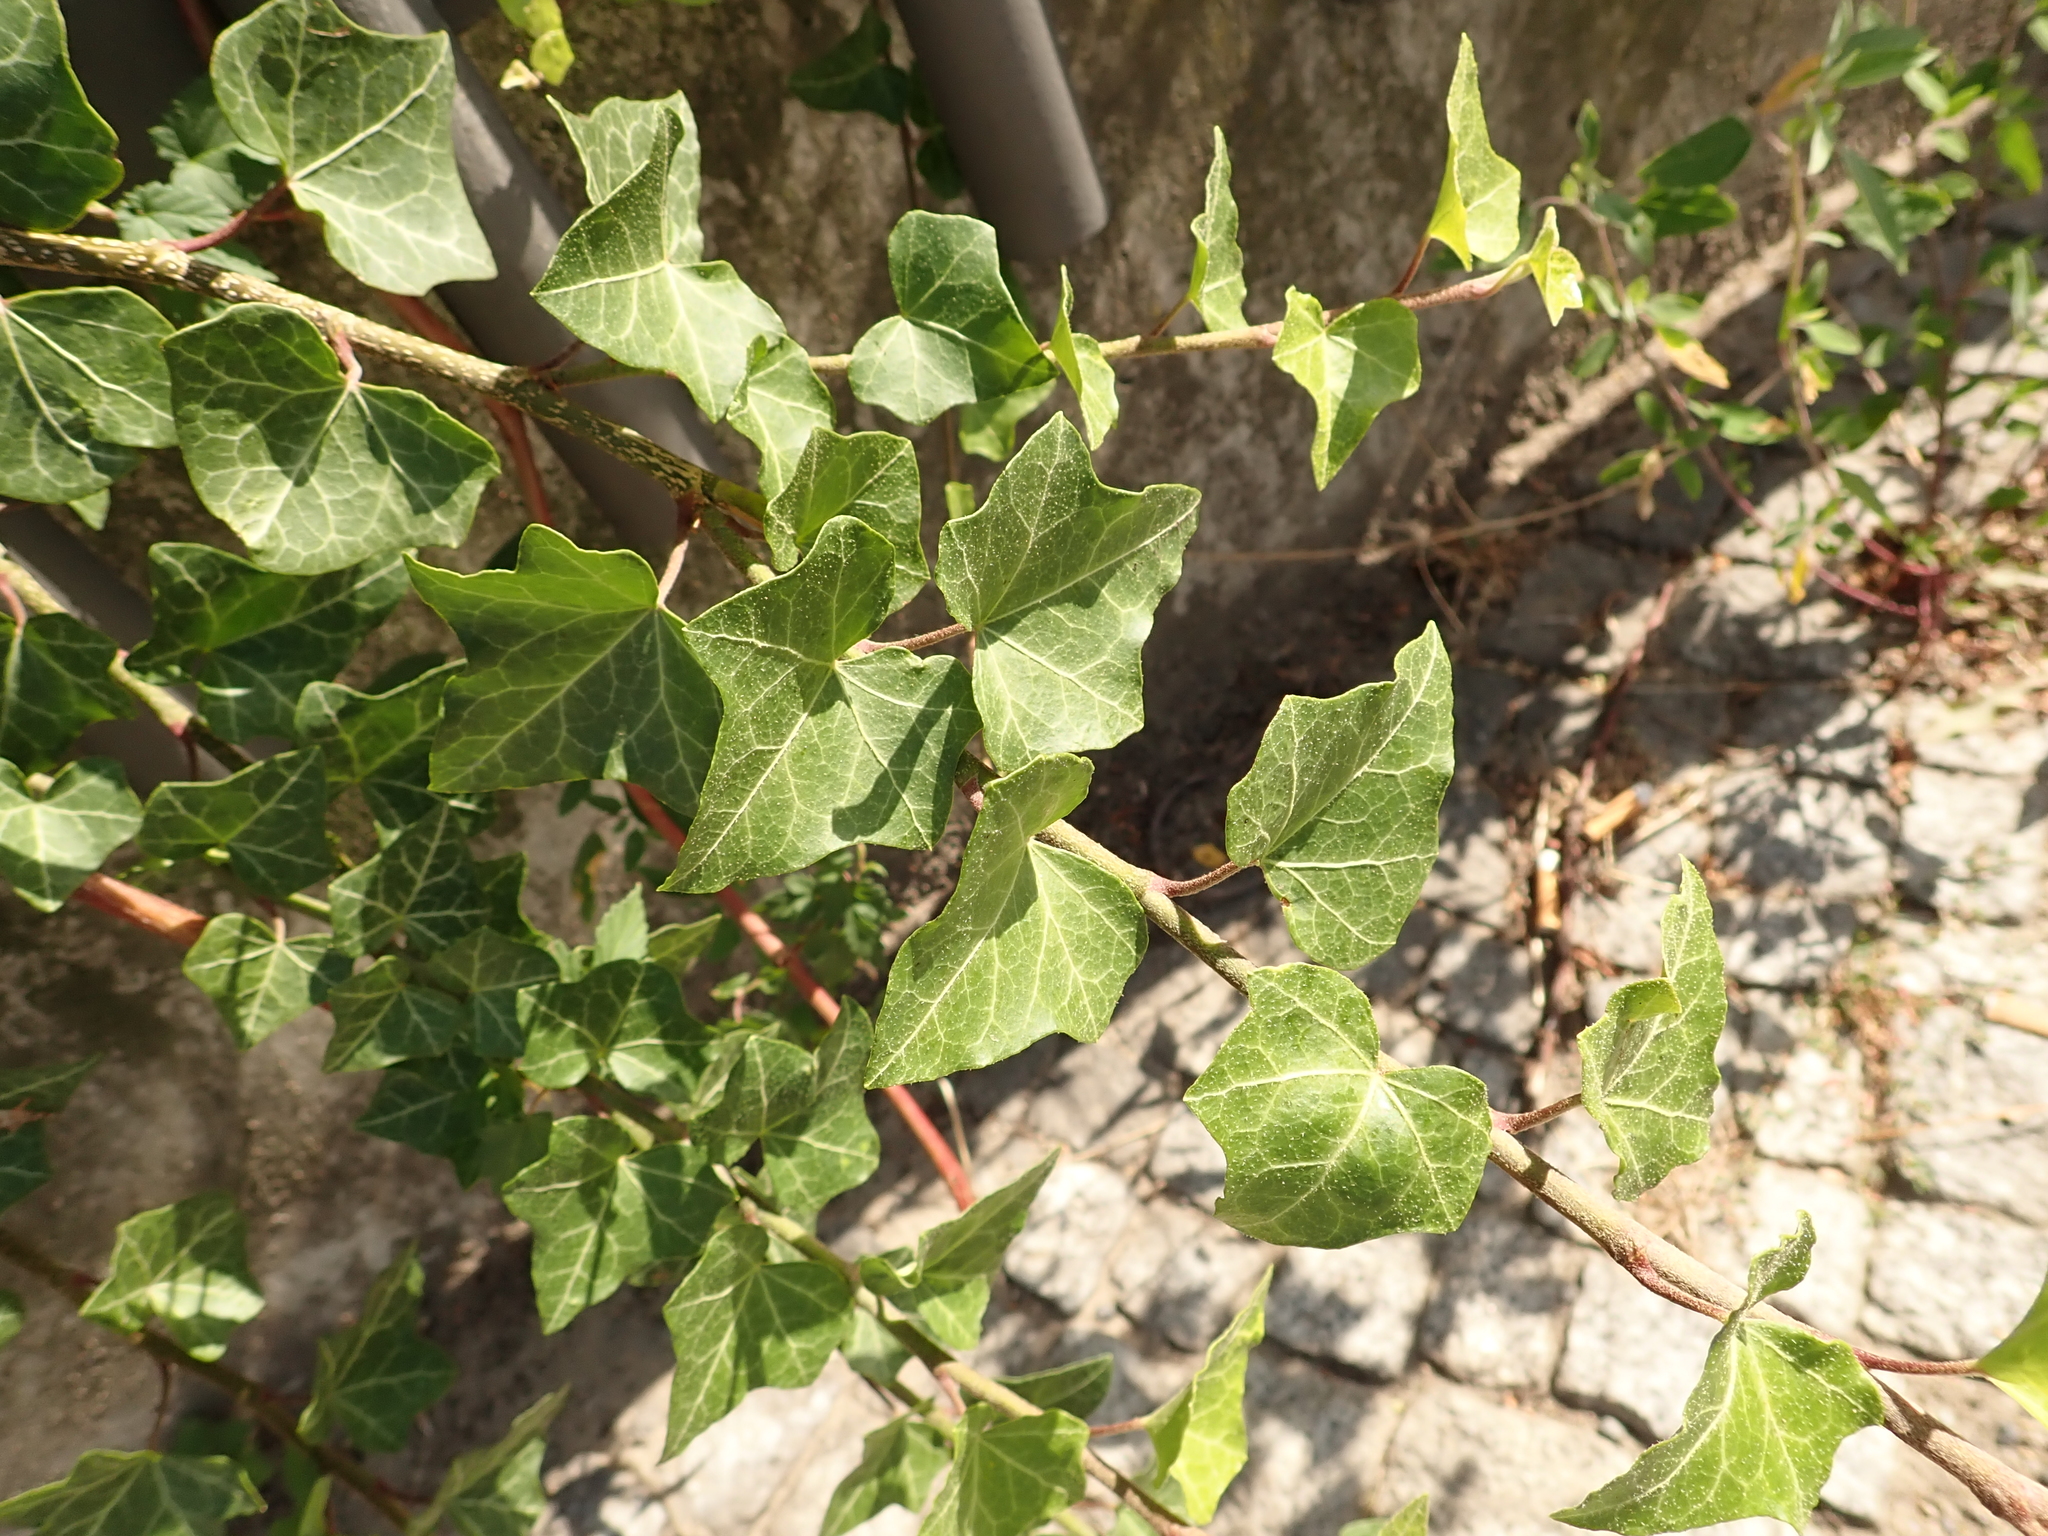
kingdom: Plantae
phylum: Tracheophyta
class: Magnoliopsida
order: Apiales
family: Araliaceae
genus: Hedera
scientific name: Hedera helix
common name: Ivy
